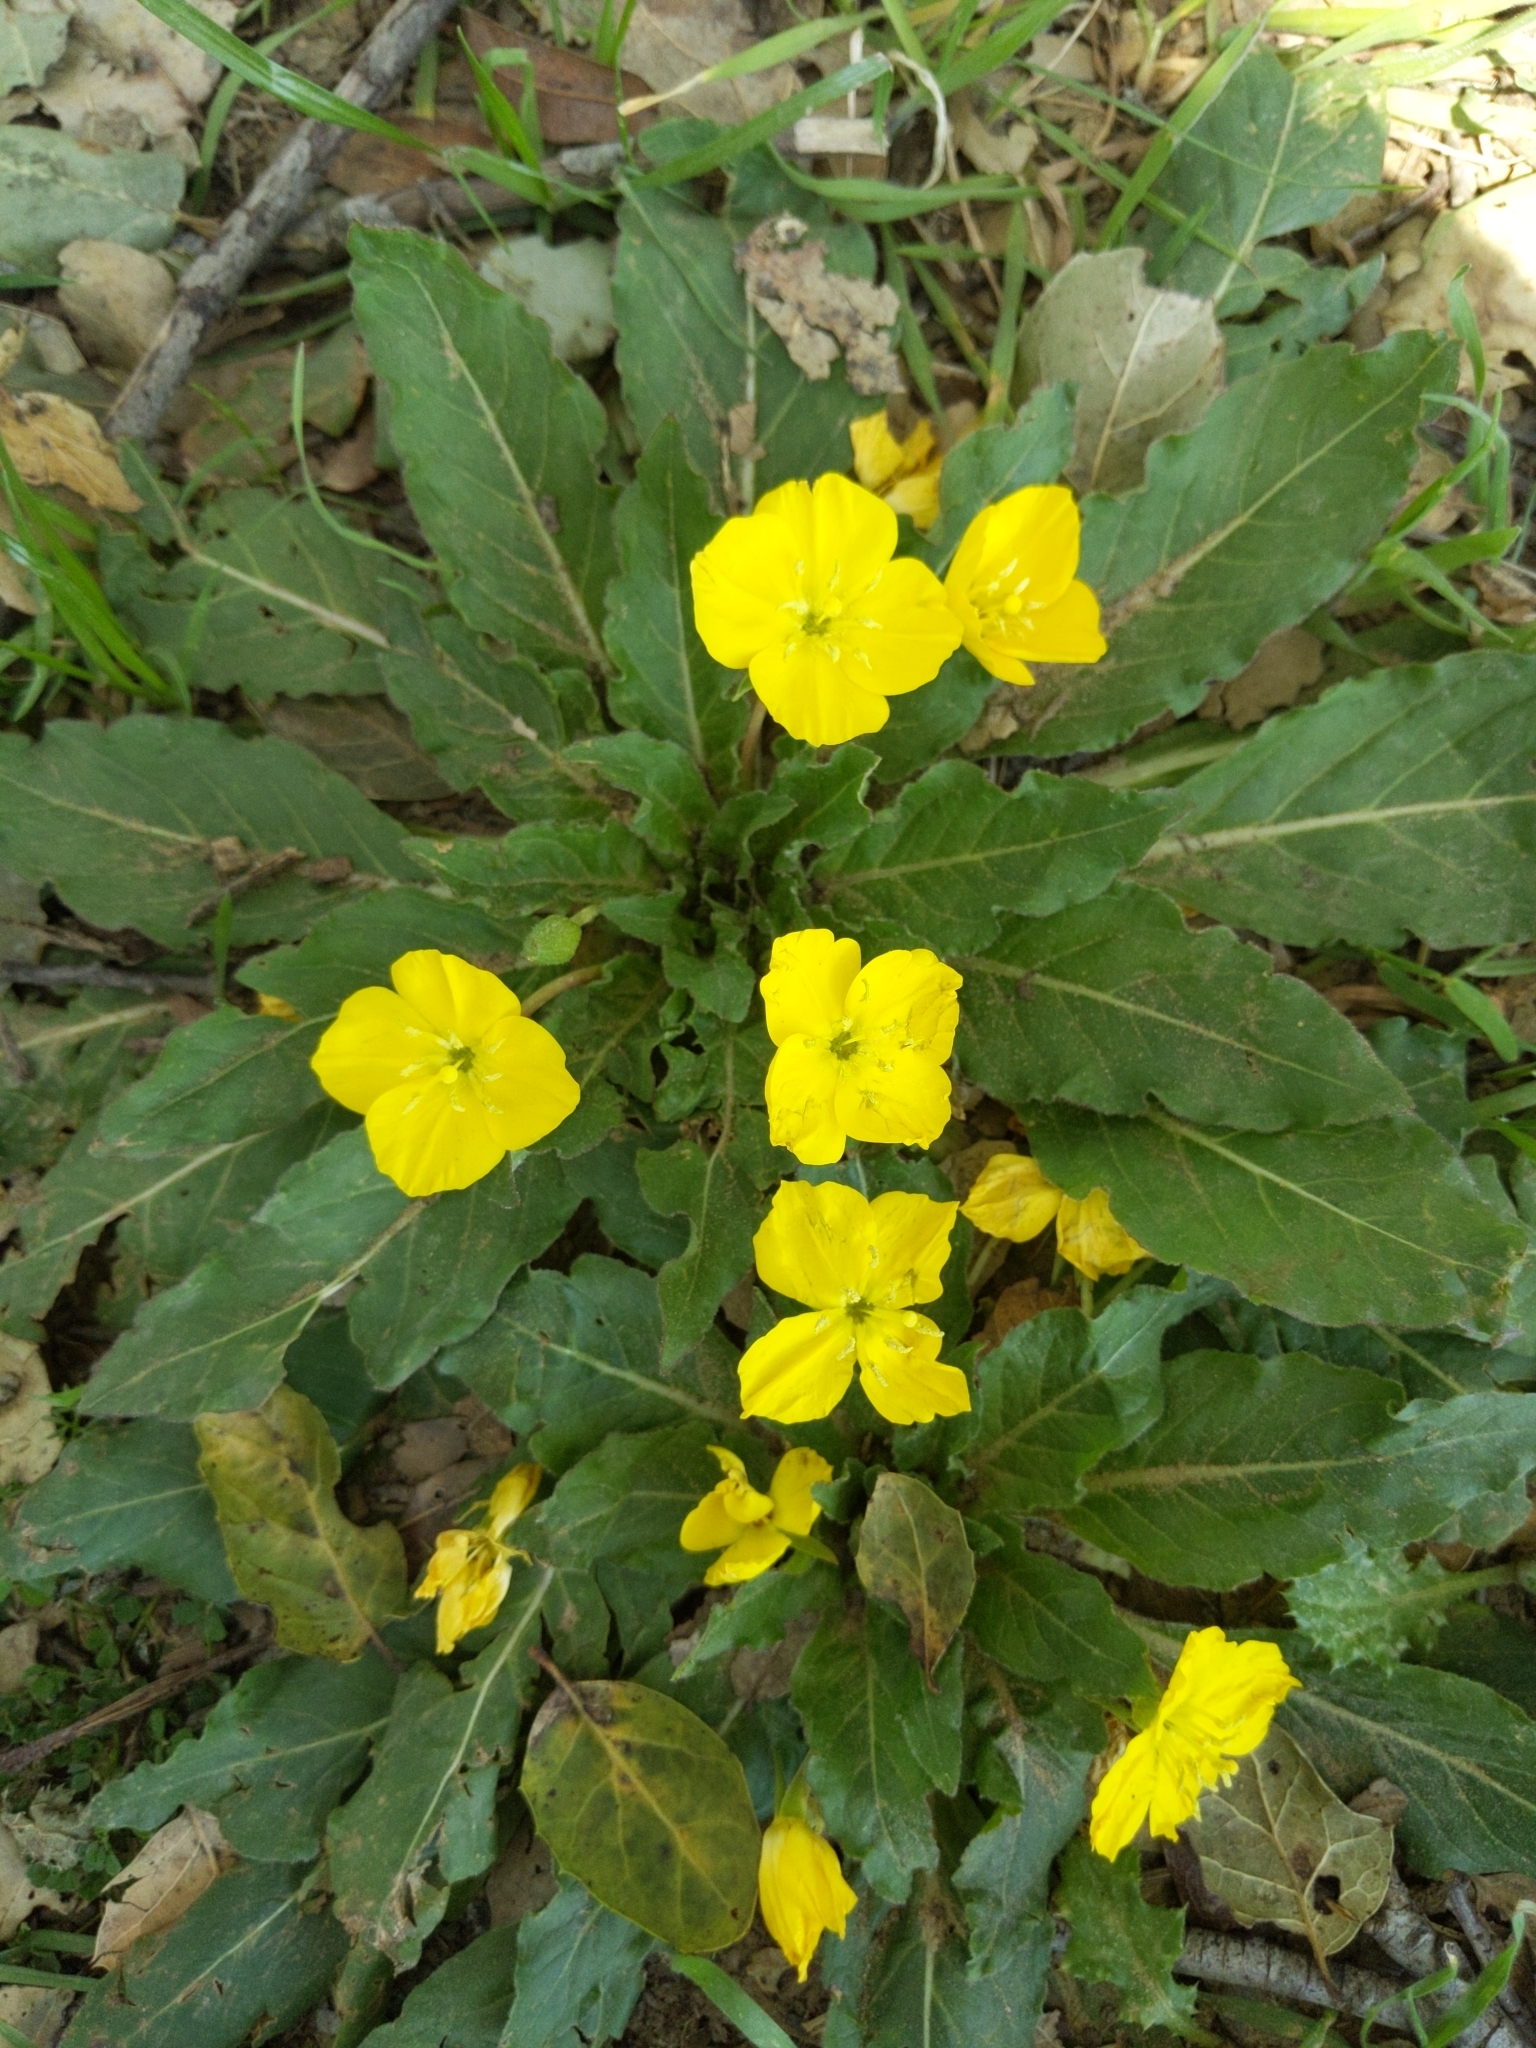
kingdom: Plantae
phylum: Tracheophyta
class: Magnoliopsida
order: Myrtales
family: Onagraceae
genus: Taraxia
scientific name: Taraxia ovata
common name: Goldeneggs
